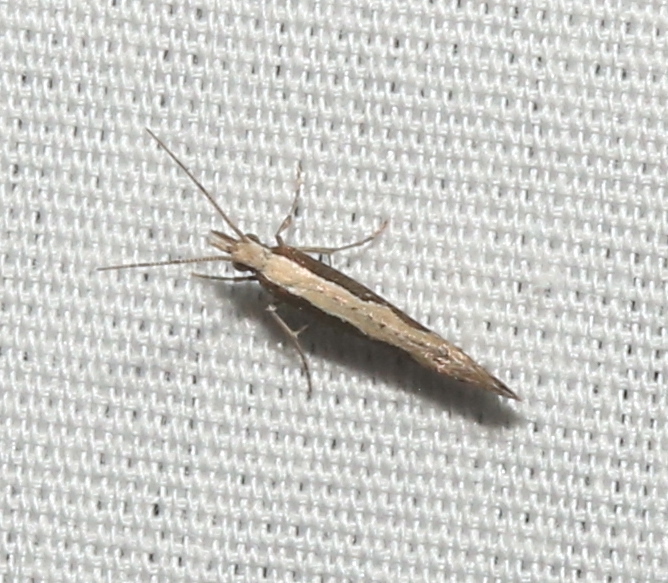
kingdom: Animalia
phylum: Arthropoda
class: Insecta
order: Lepidoptera
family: Plutellidae
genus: Plutella
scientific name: Plutella xylostella
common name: Diamond-back moth
